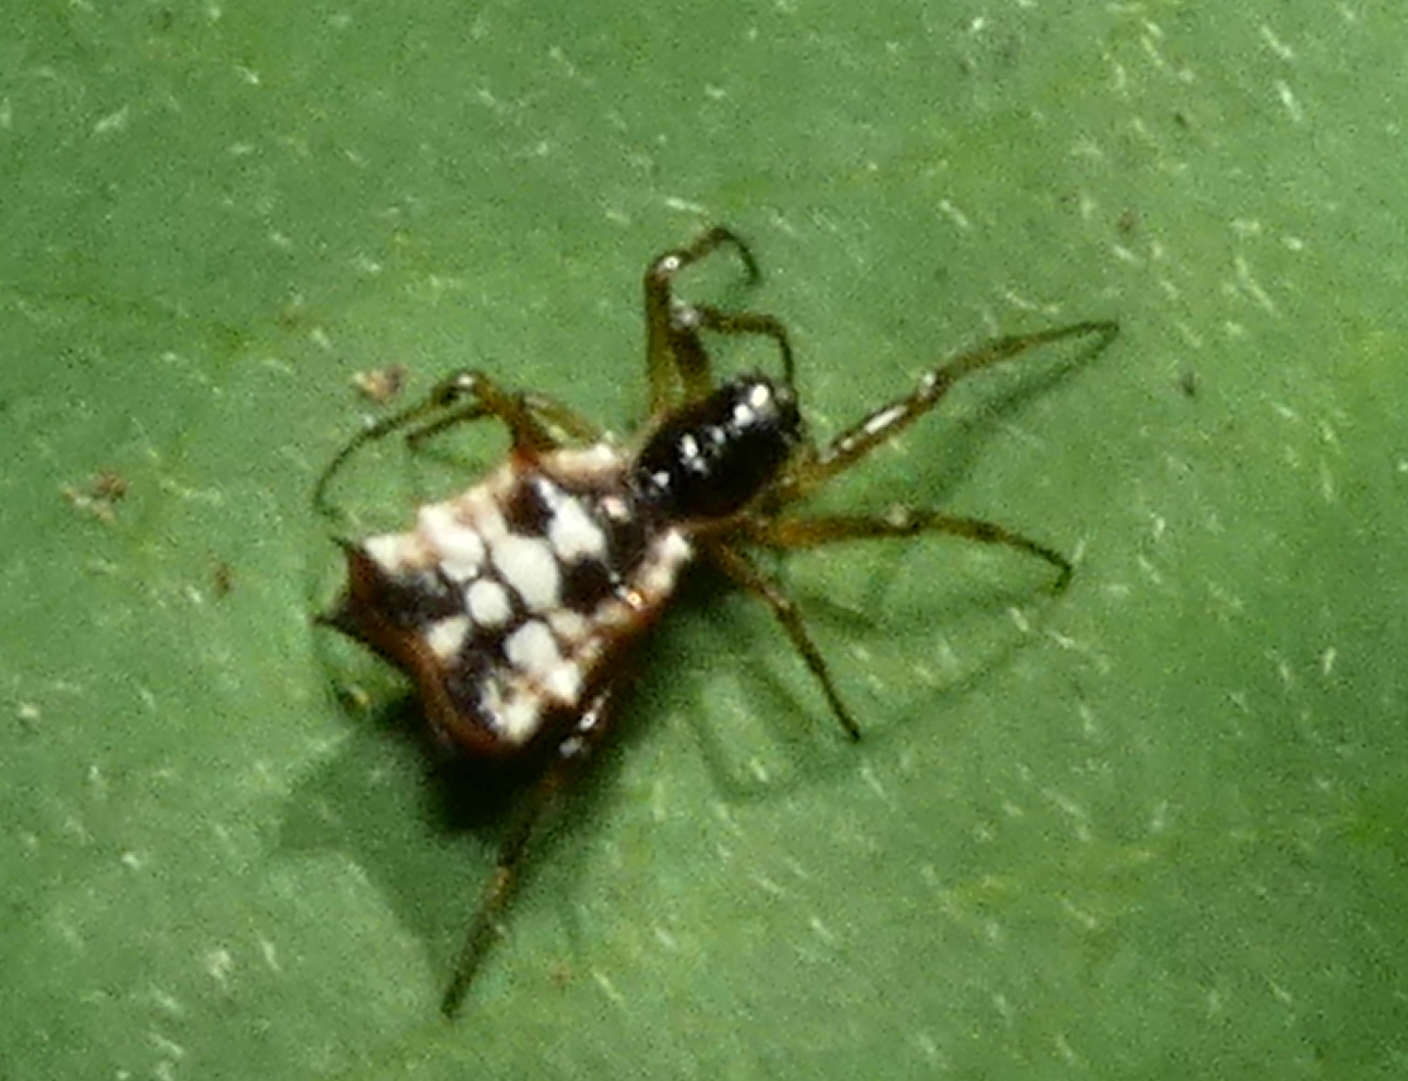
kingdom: Animalia
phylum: Arthropoda
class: Arachnida
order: Araneae
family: Araneidae
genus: Micrathena
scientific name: Micrathena picta
